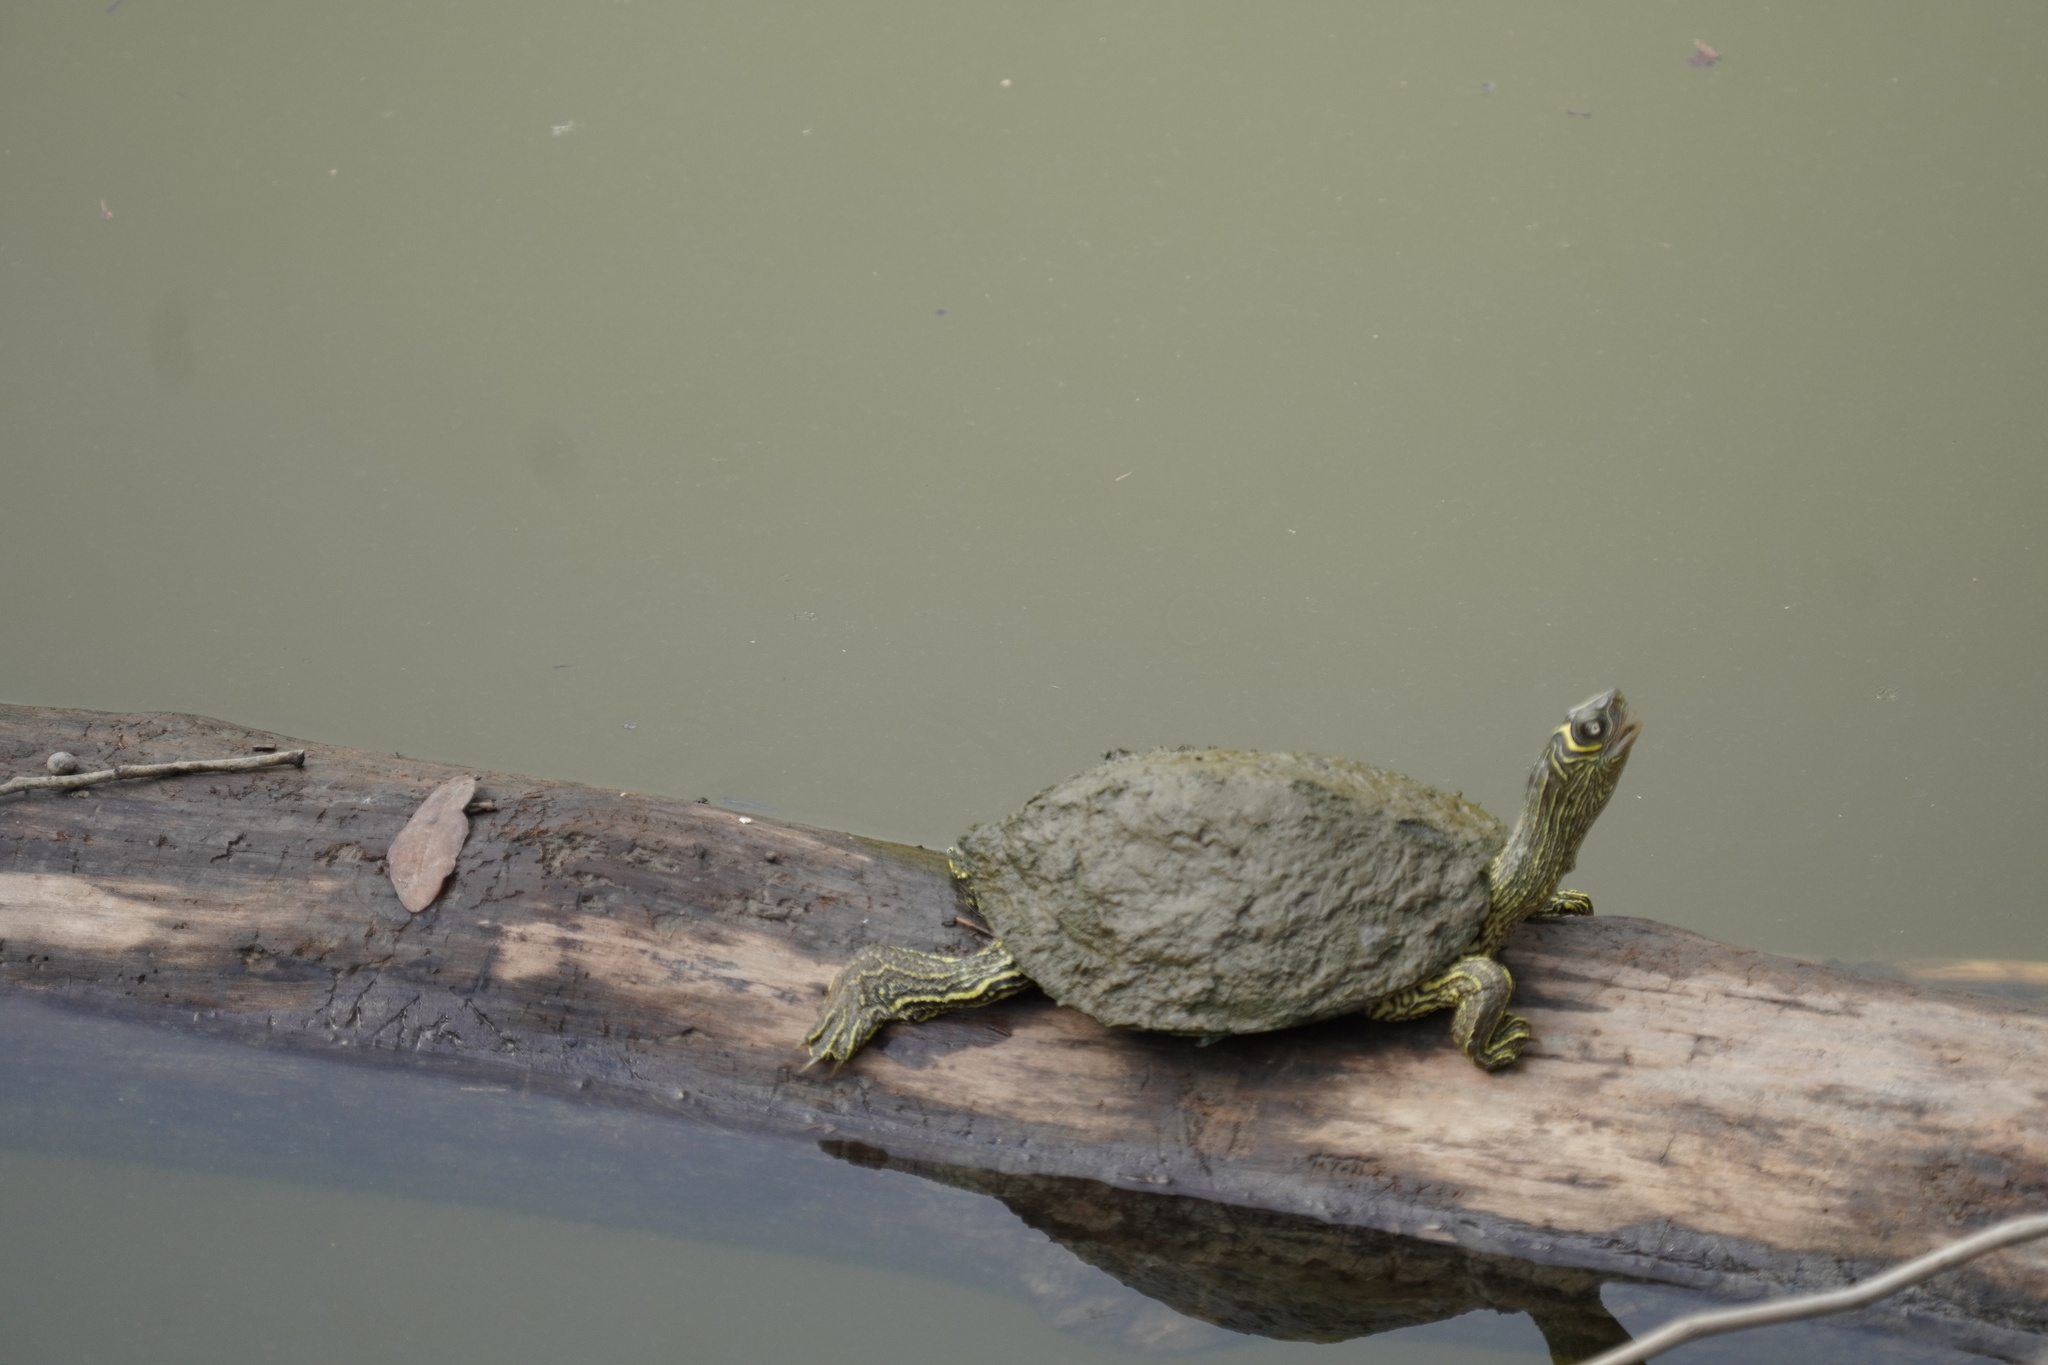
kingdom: Animalia
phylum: Chordata
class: Testudines
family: Emydidae
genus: Graptemys
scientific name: Graptemys pseudogeographica
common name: False map turtle
